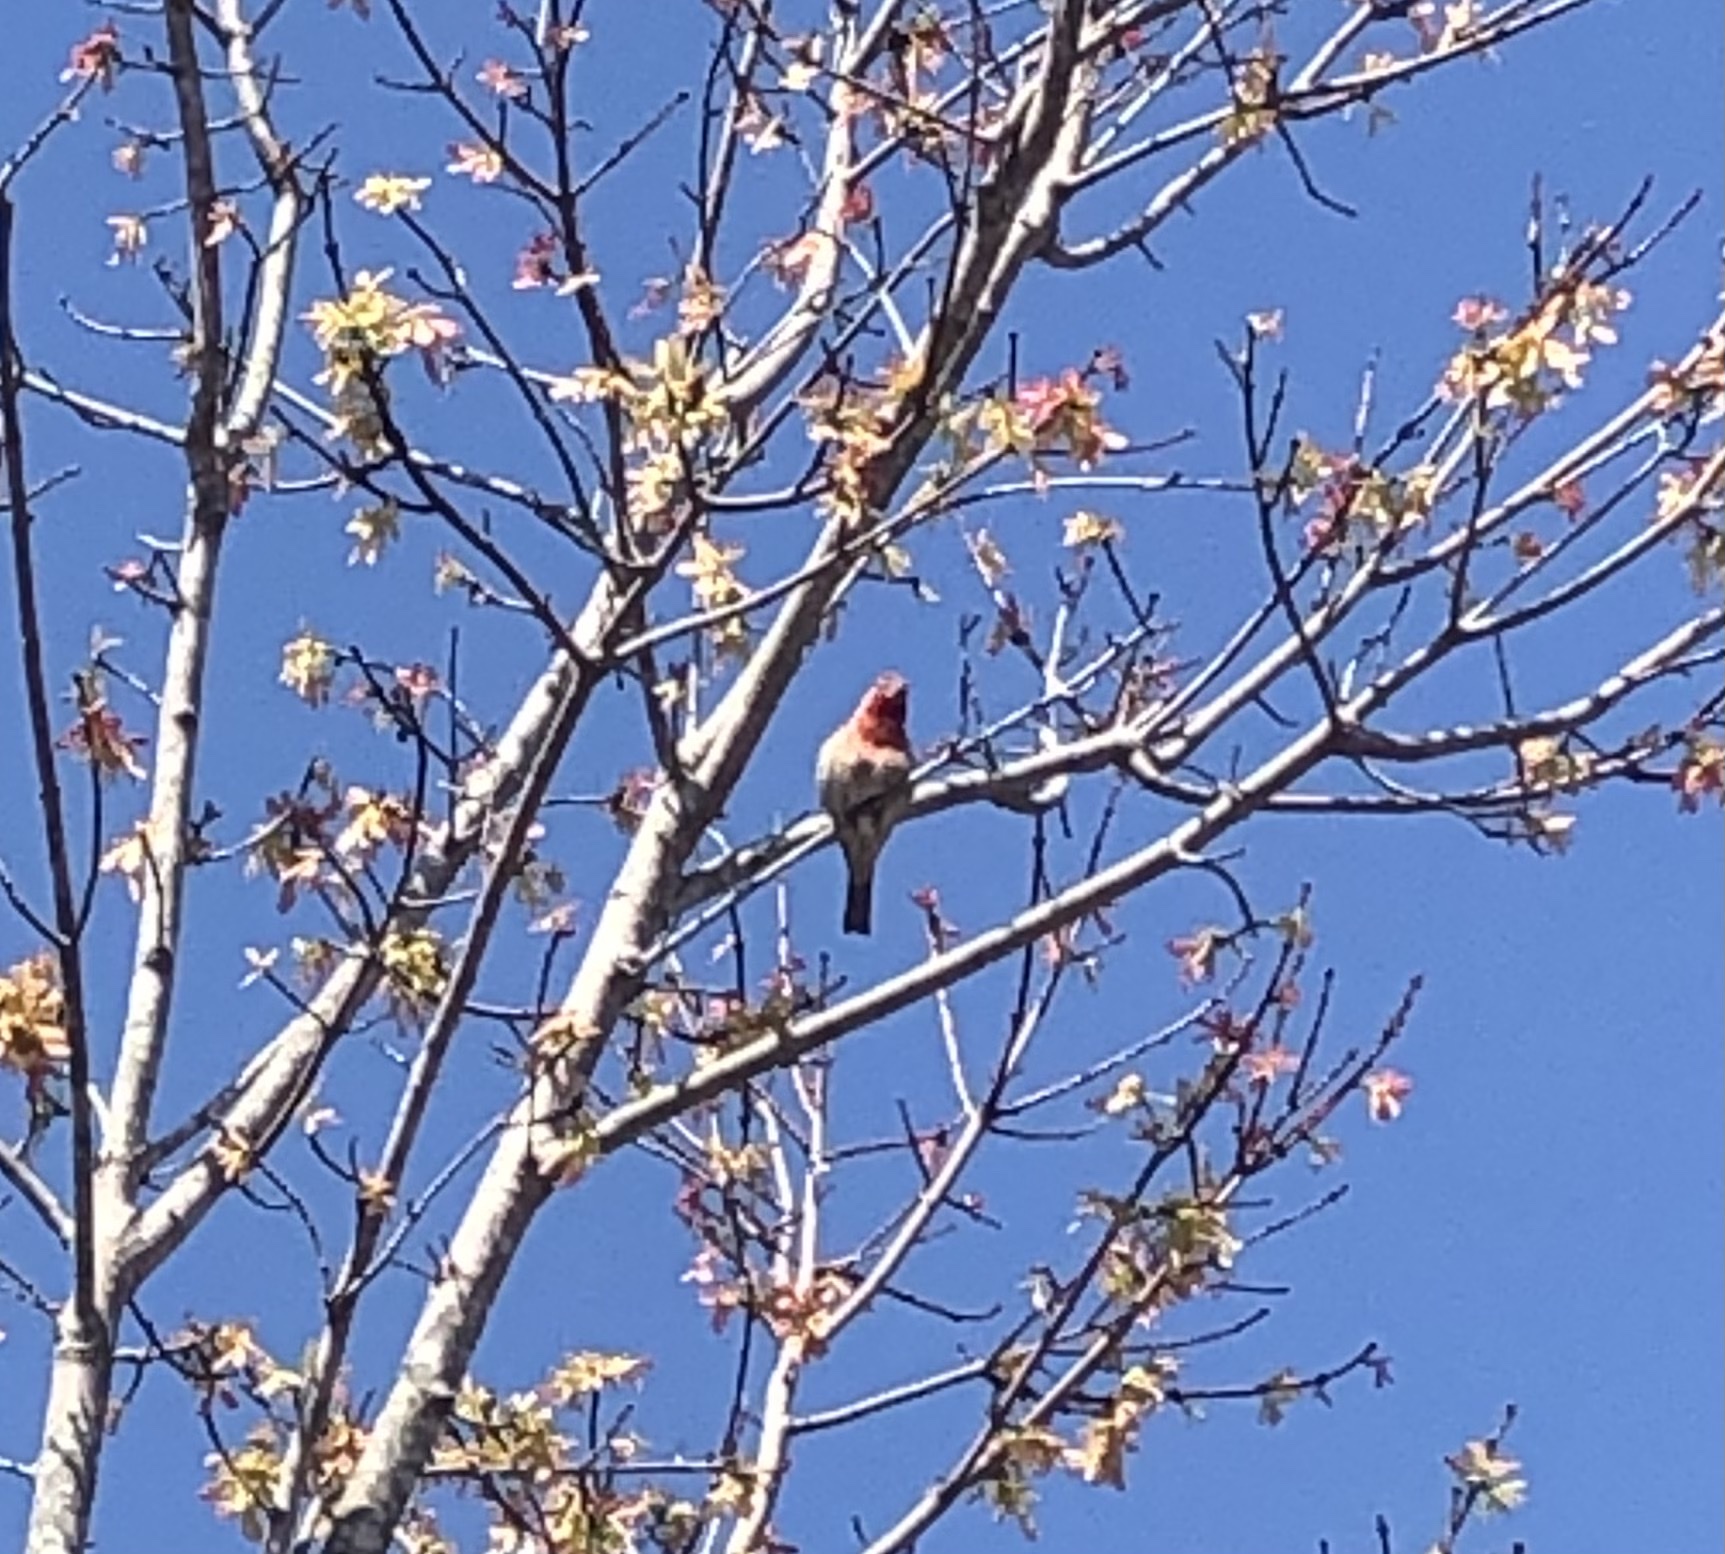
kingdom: Animalia
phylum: Chordata
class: Aves
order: Passeriformes
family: Fringillidae
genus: Haemorhous
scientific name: Haemorhous mexicanus
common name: House finch
